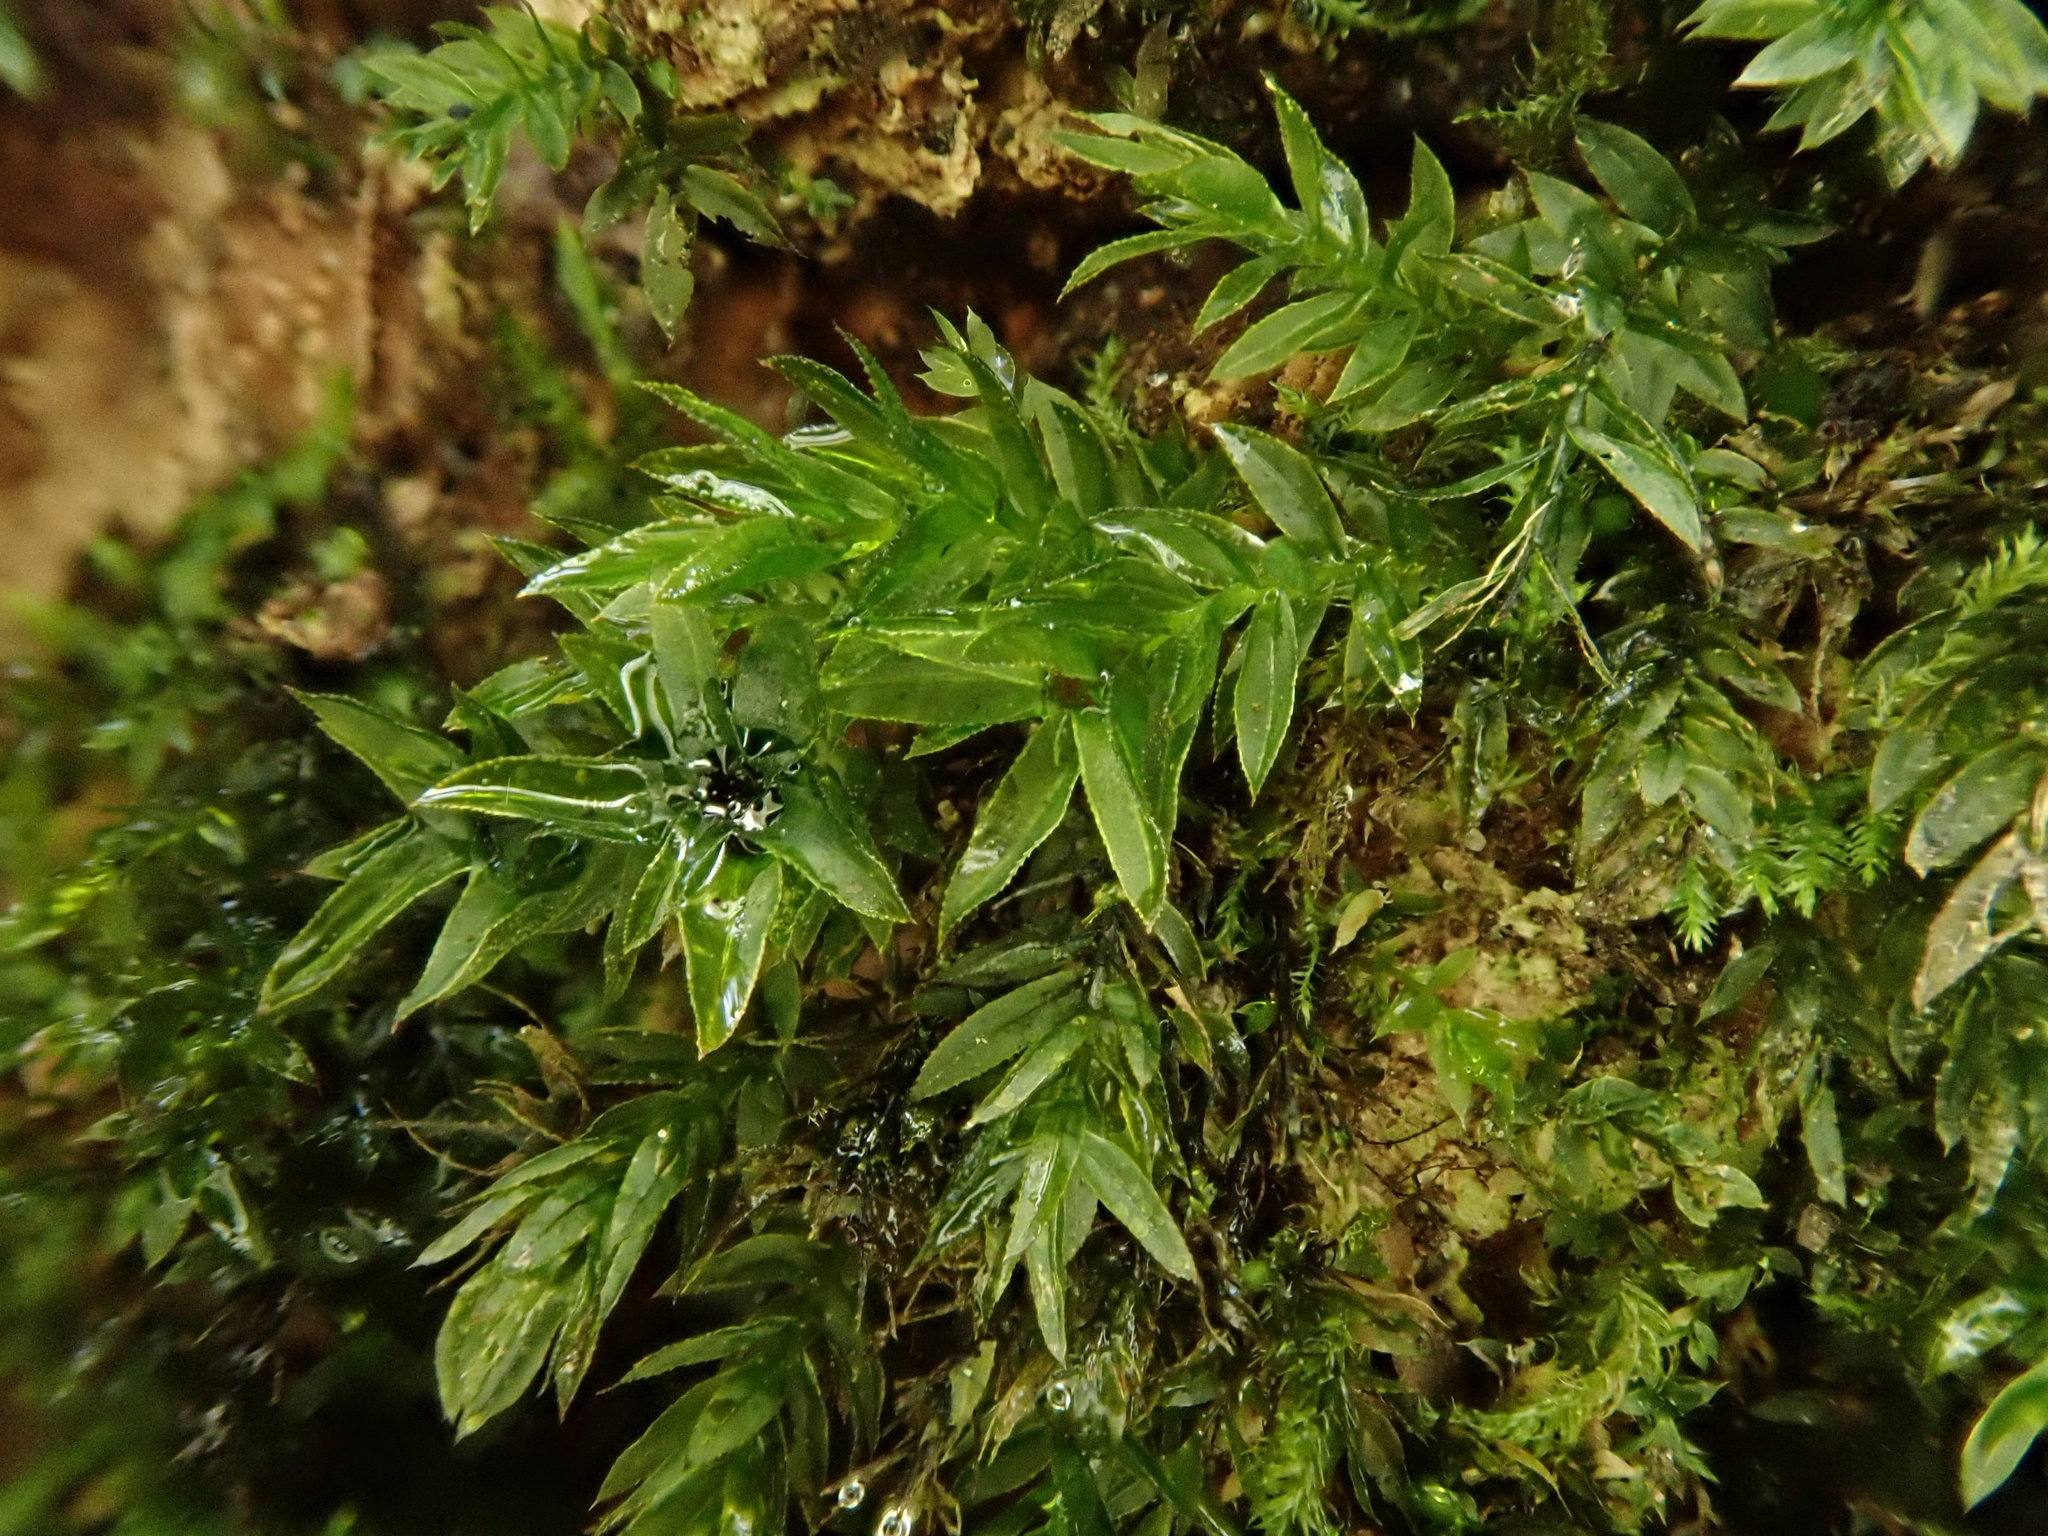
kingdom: Plantae
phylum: Bryophyta
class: Bryopsida
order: Bryales
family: Mniaceae
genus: Mnium
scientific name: Mnium hornum
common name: Swan's-neck leafy moss
